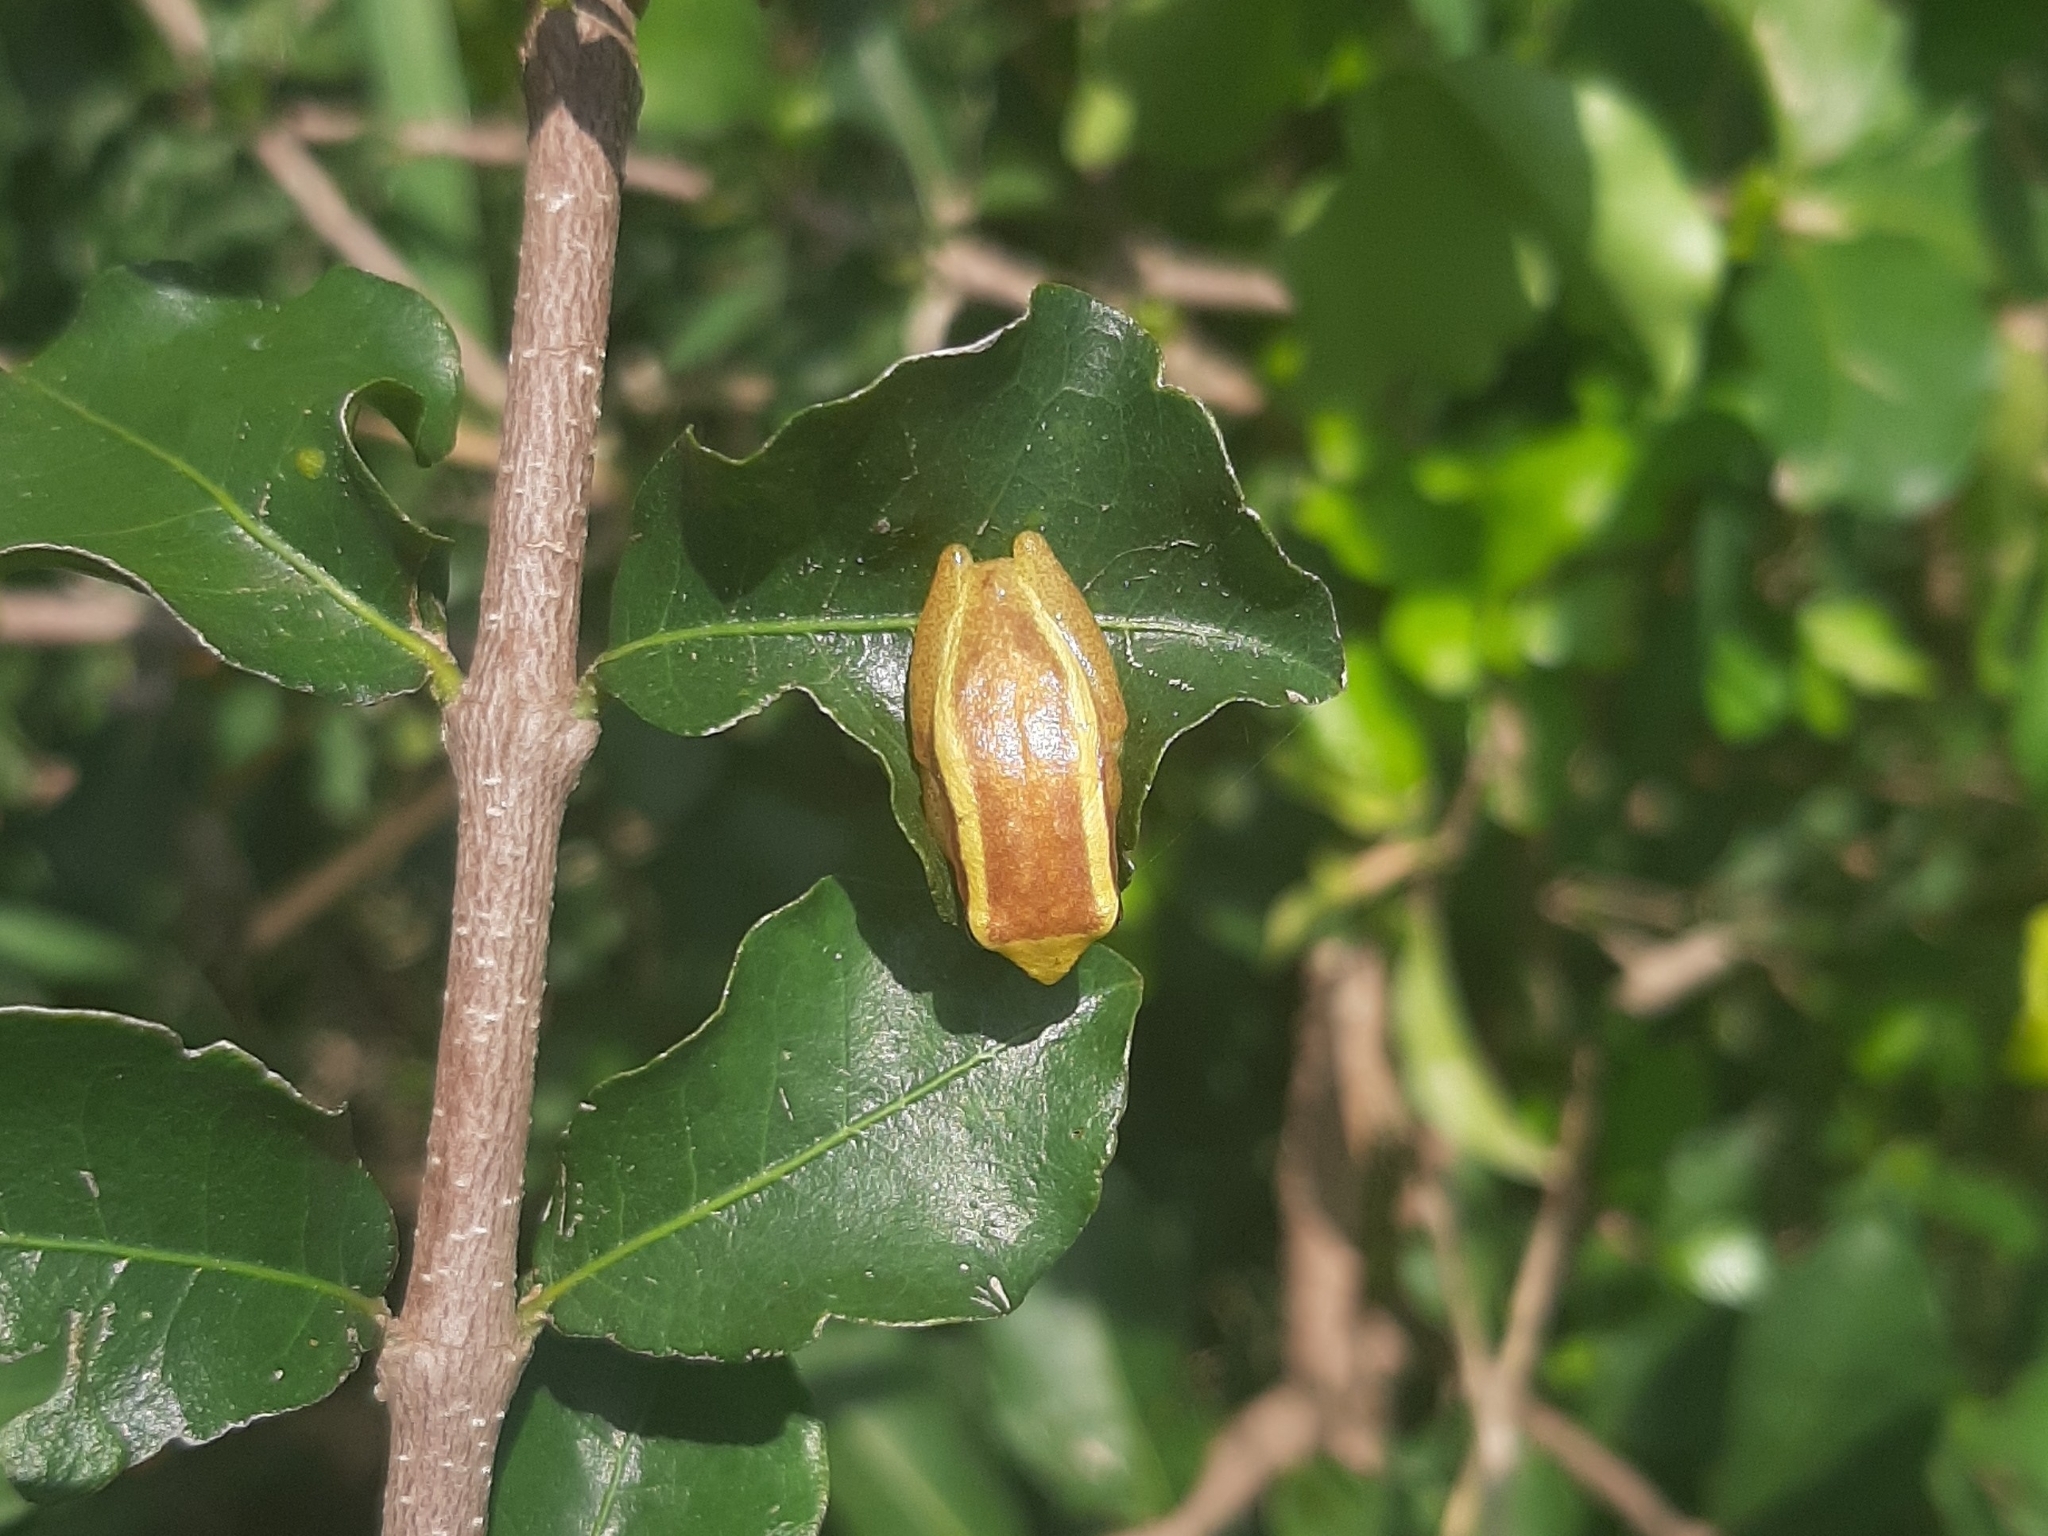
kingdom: Animalia
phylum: Chordata
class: Amphibia
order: Anura
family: Hylidae
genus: Dendropsophus
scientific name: Dendropsophus decipiens
